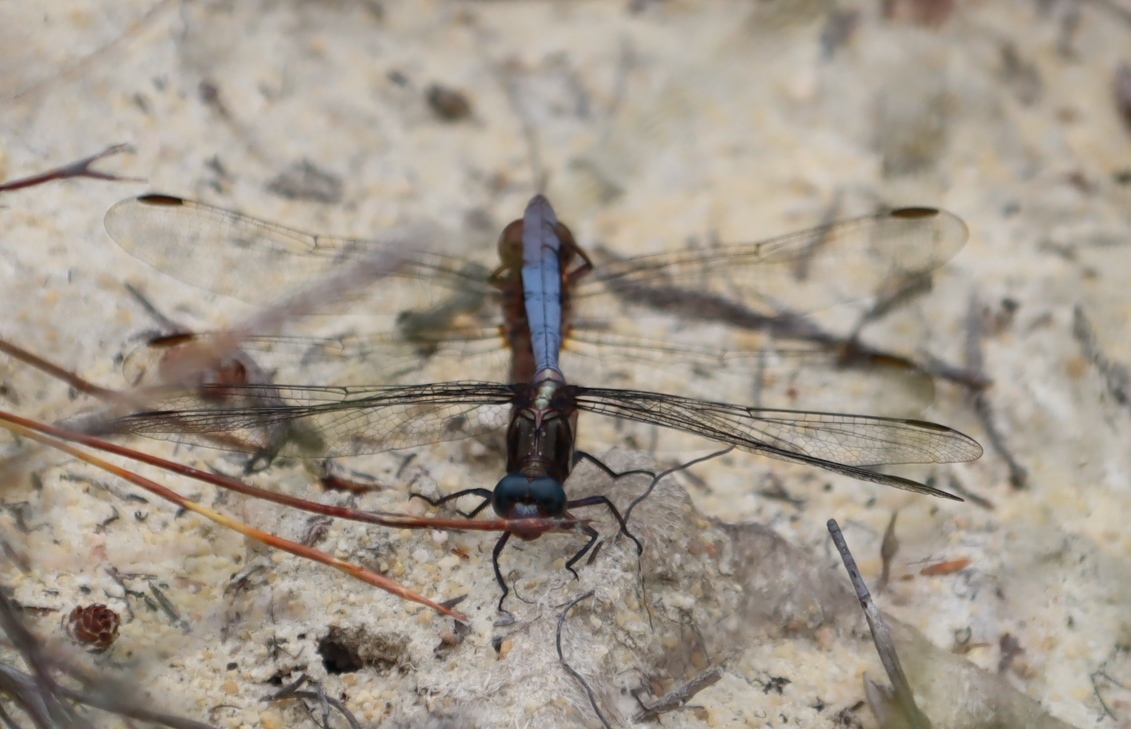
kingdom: Animalia
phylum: Arthropoda
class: Insecta
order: Odonata
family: Libellulidae
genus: Orthetrum
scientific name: Orthetrum julia
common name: Julia skimmer
